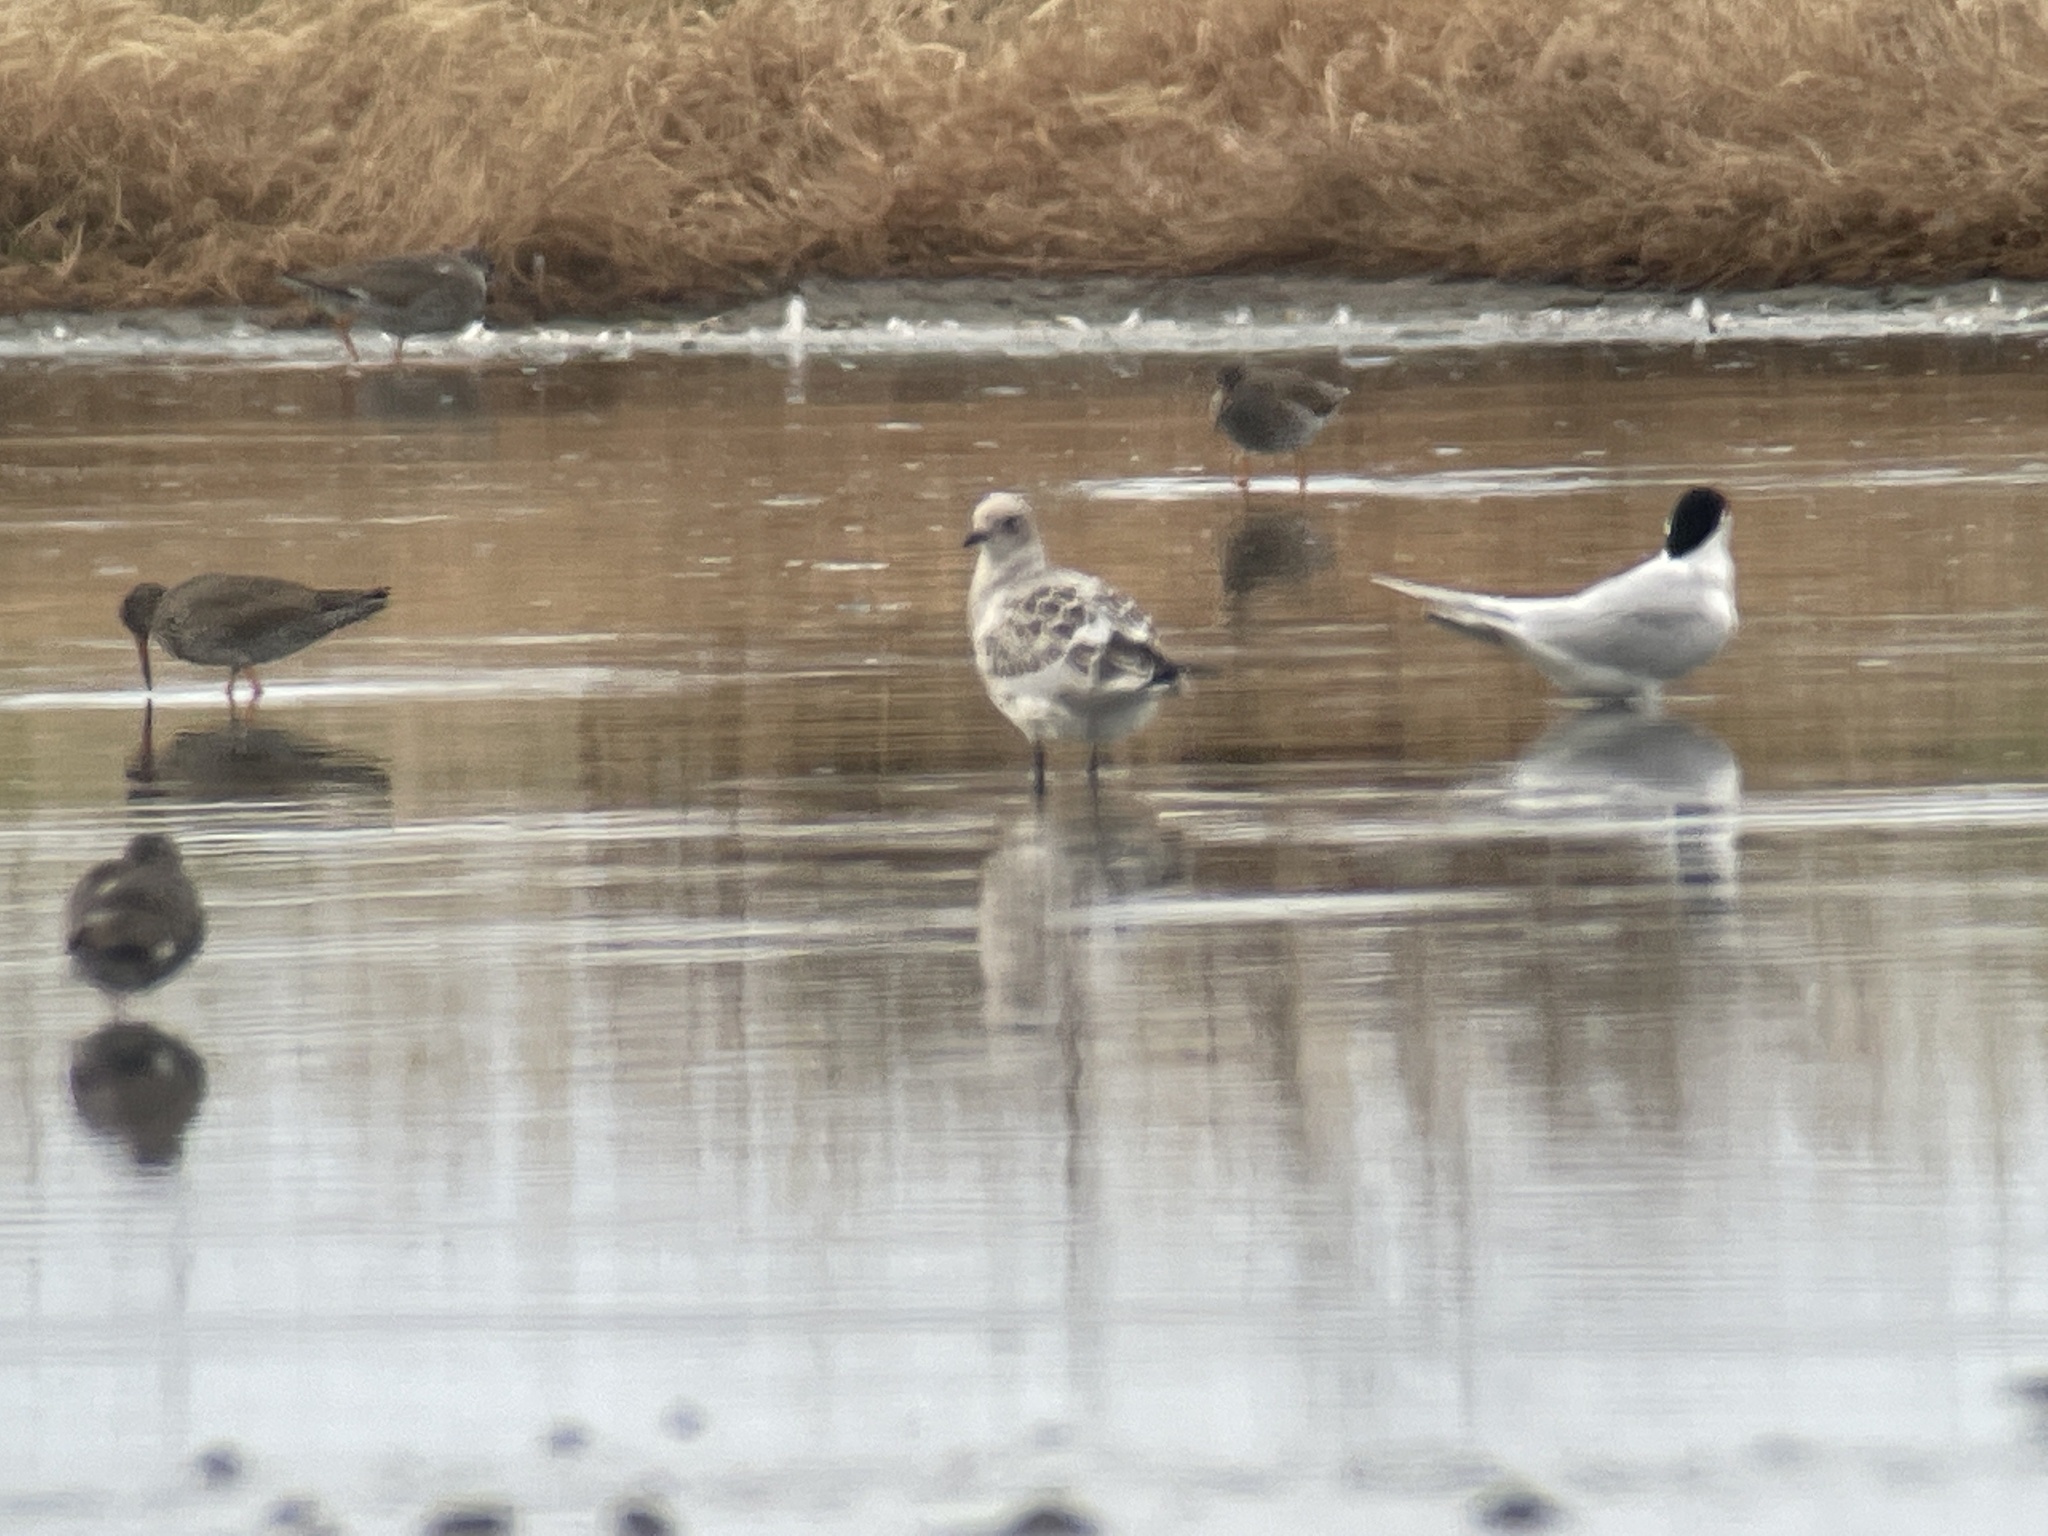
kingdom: Animalia
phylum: Chordata
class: Aves
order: Charadriiformes
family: Laridae
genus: Ichthyaetus
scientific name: Ichthyaetus melanocephalus
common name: Mediterranean gull
